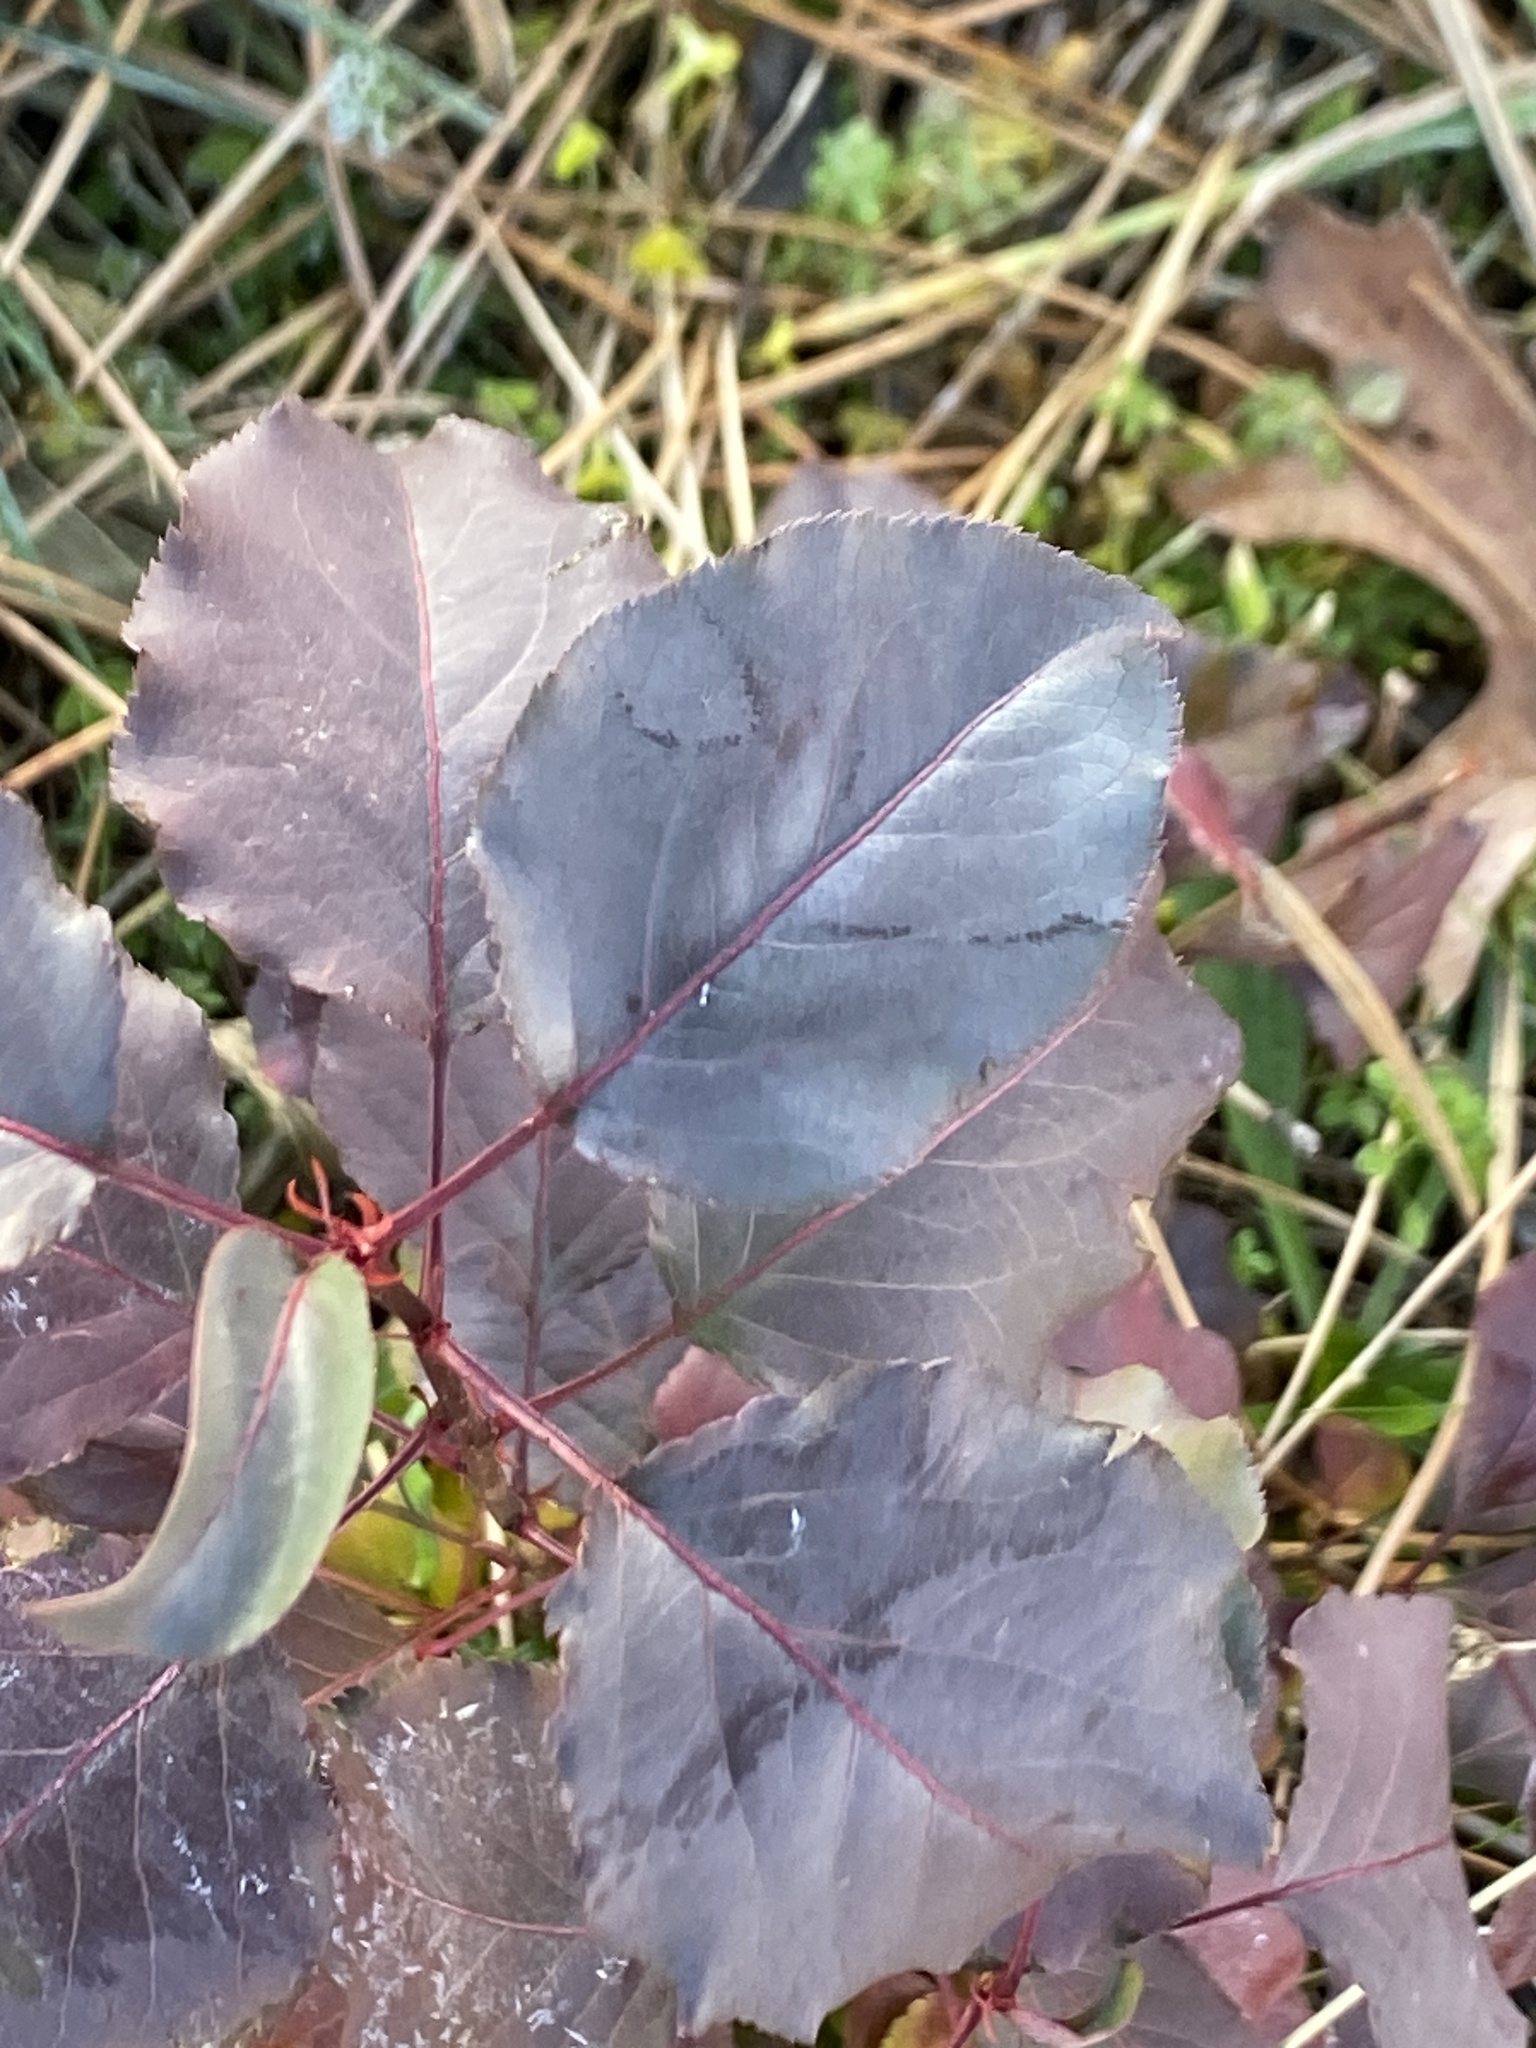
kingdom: Plantae
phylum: Tracheophyta
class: Magnoliopsida
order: Rosales
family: Rosaceae
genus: Pyrus
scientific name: Pyrus calleryana
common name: Callery pear
